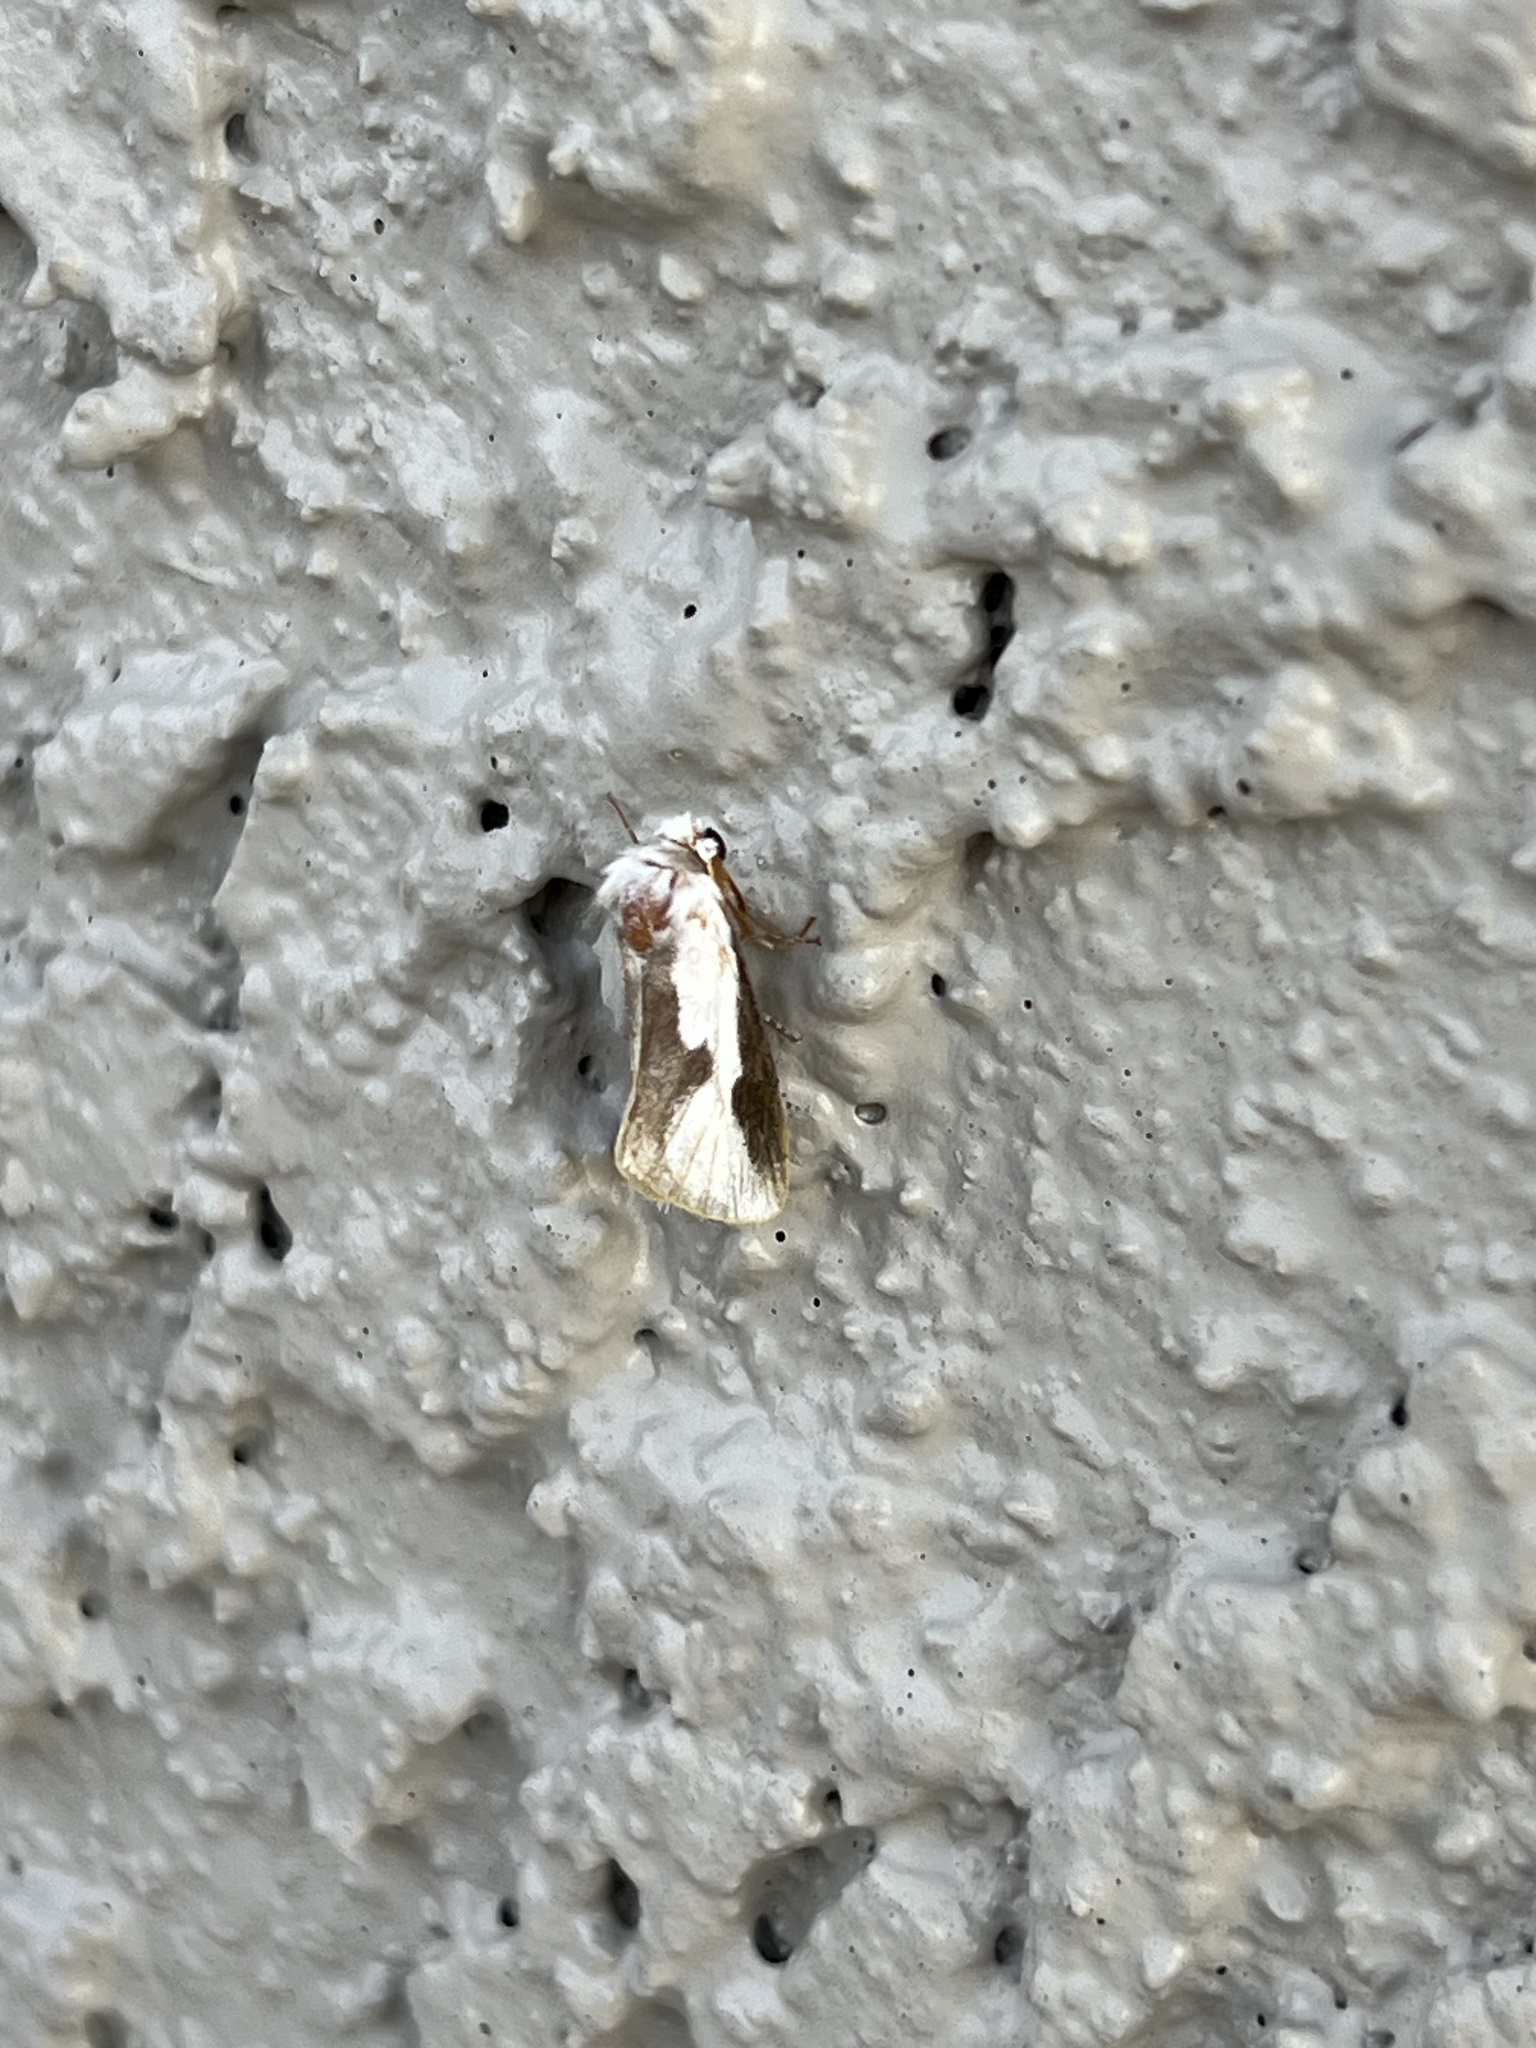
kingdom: Animalia
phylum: Arthropoda
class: Insecta
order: Lepidoptera
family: Megalopygidae
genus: Norape
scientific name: Norape tener
